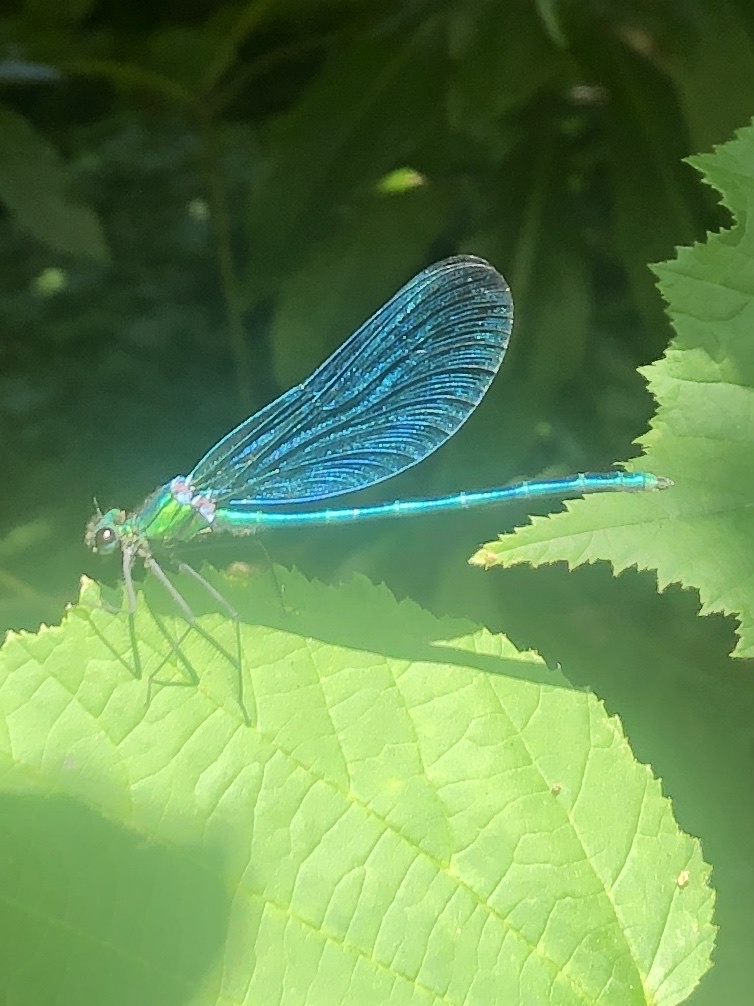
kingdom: Animalia
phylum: Arthropoda
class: Insecta
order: Odonata
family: Calopterygidae
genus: Calopteryx
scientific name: Calopteryx virgo
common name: Beautiful demoiselle
